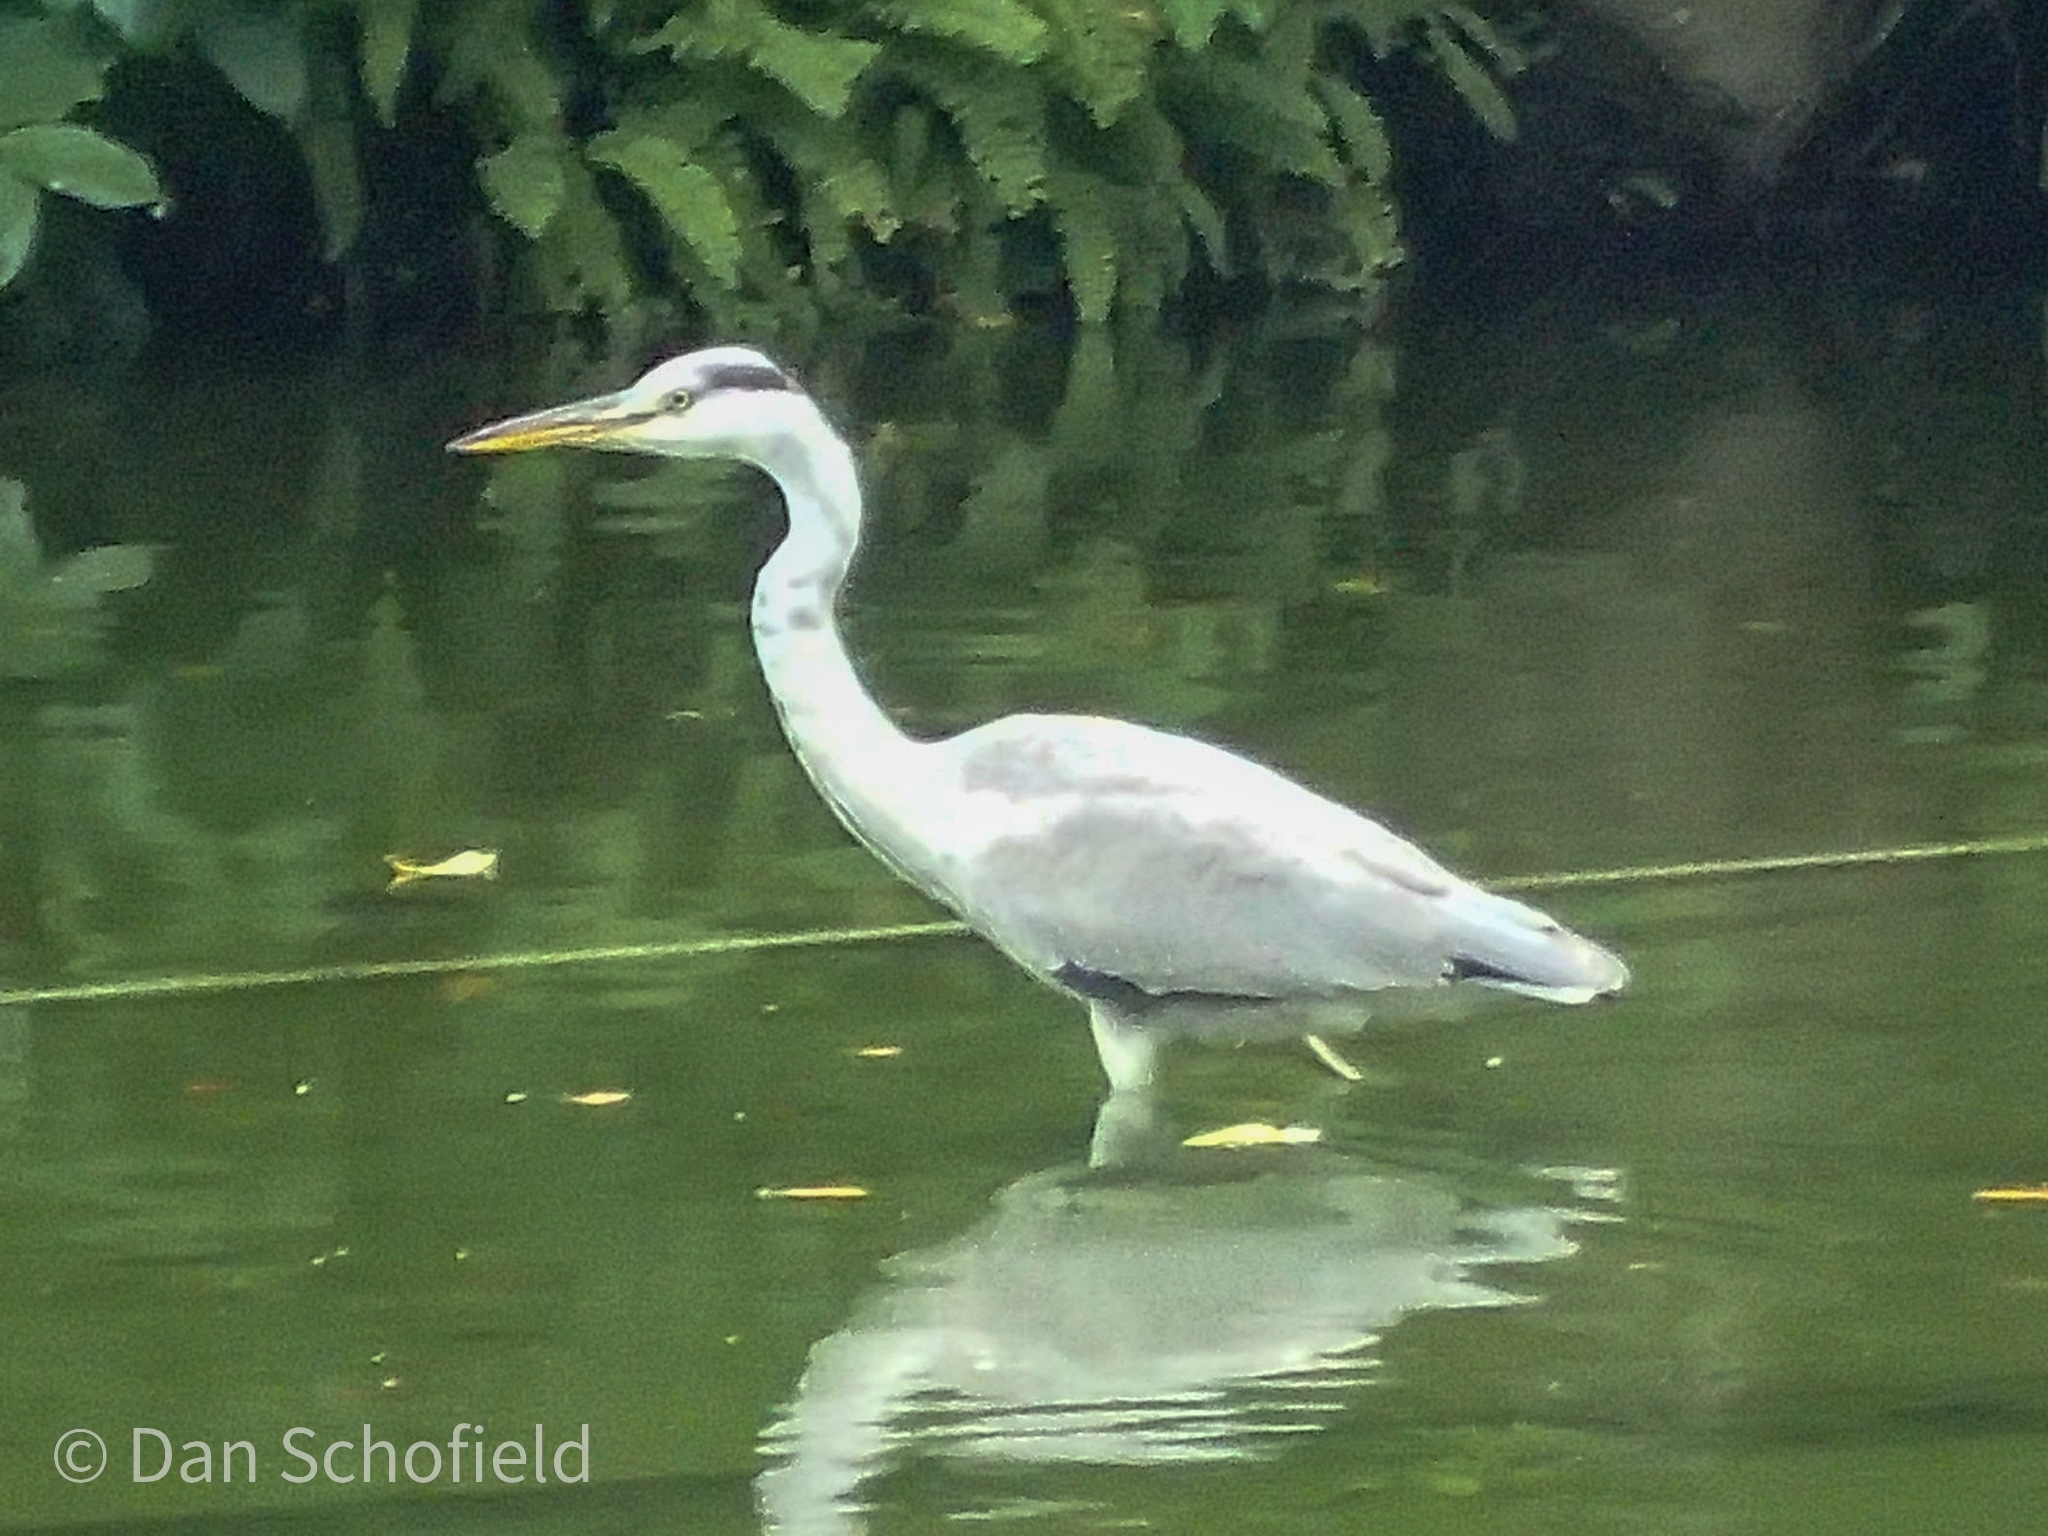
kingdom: Animalia
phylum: Chordata
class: Aves
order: Pelecaniformes
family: Ardeidae
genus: Ardea
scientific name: Ardea cinerea
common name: Grey heron
